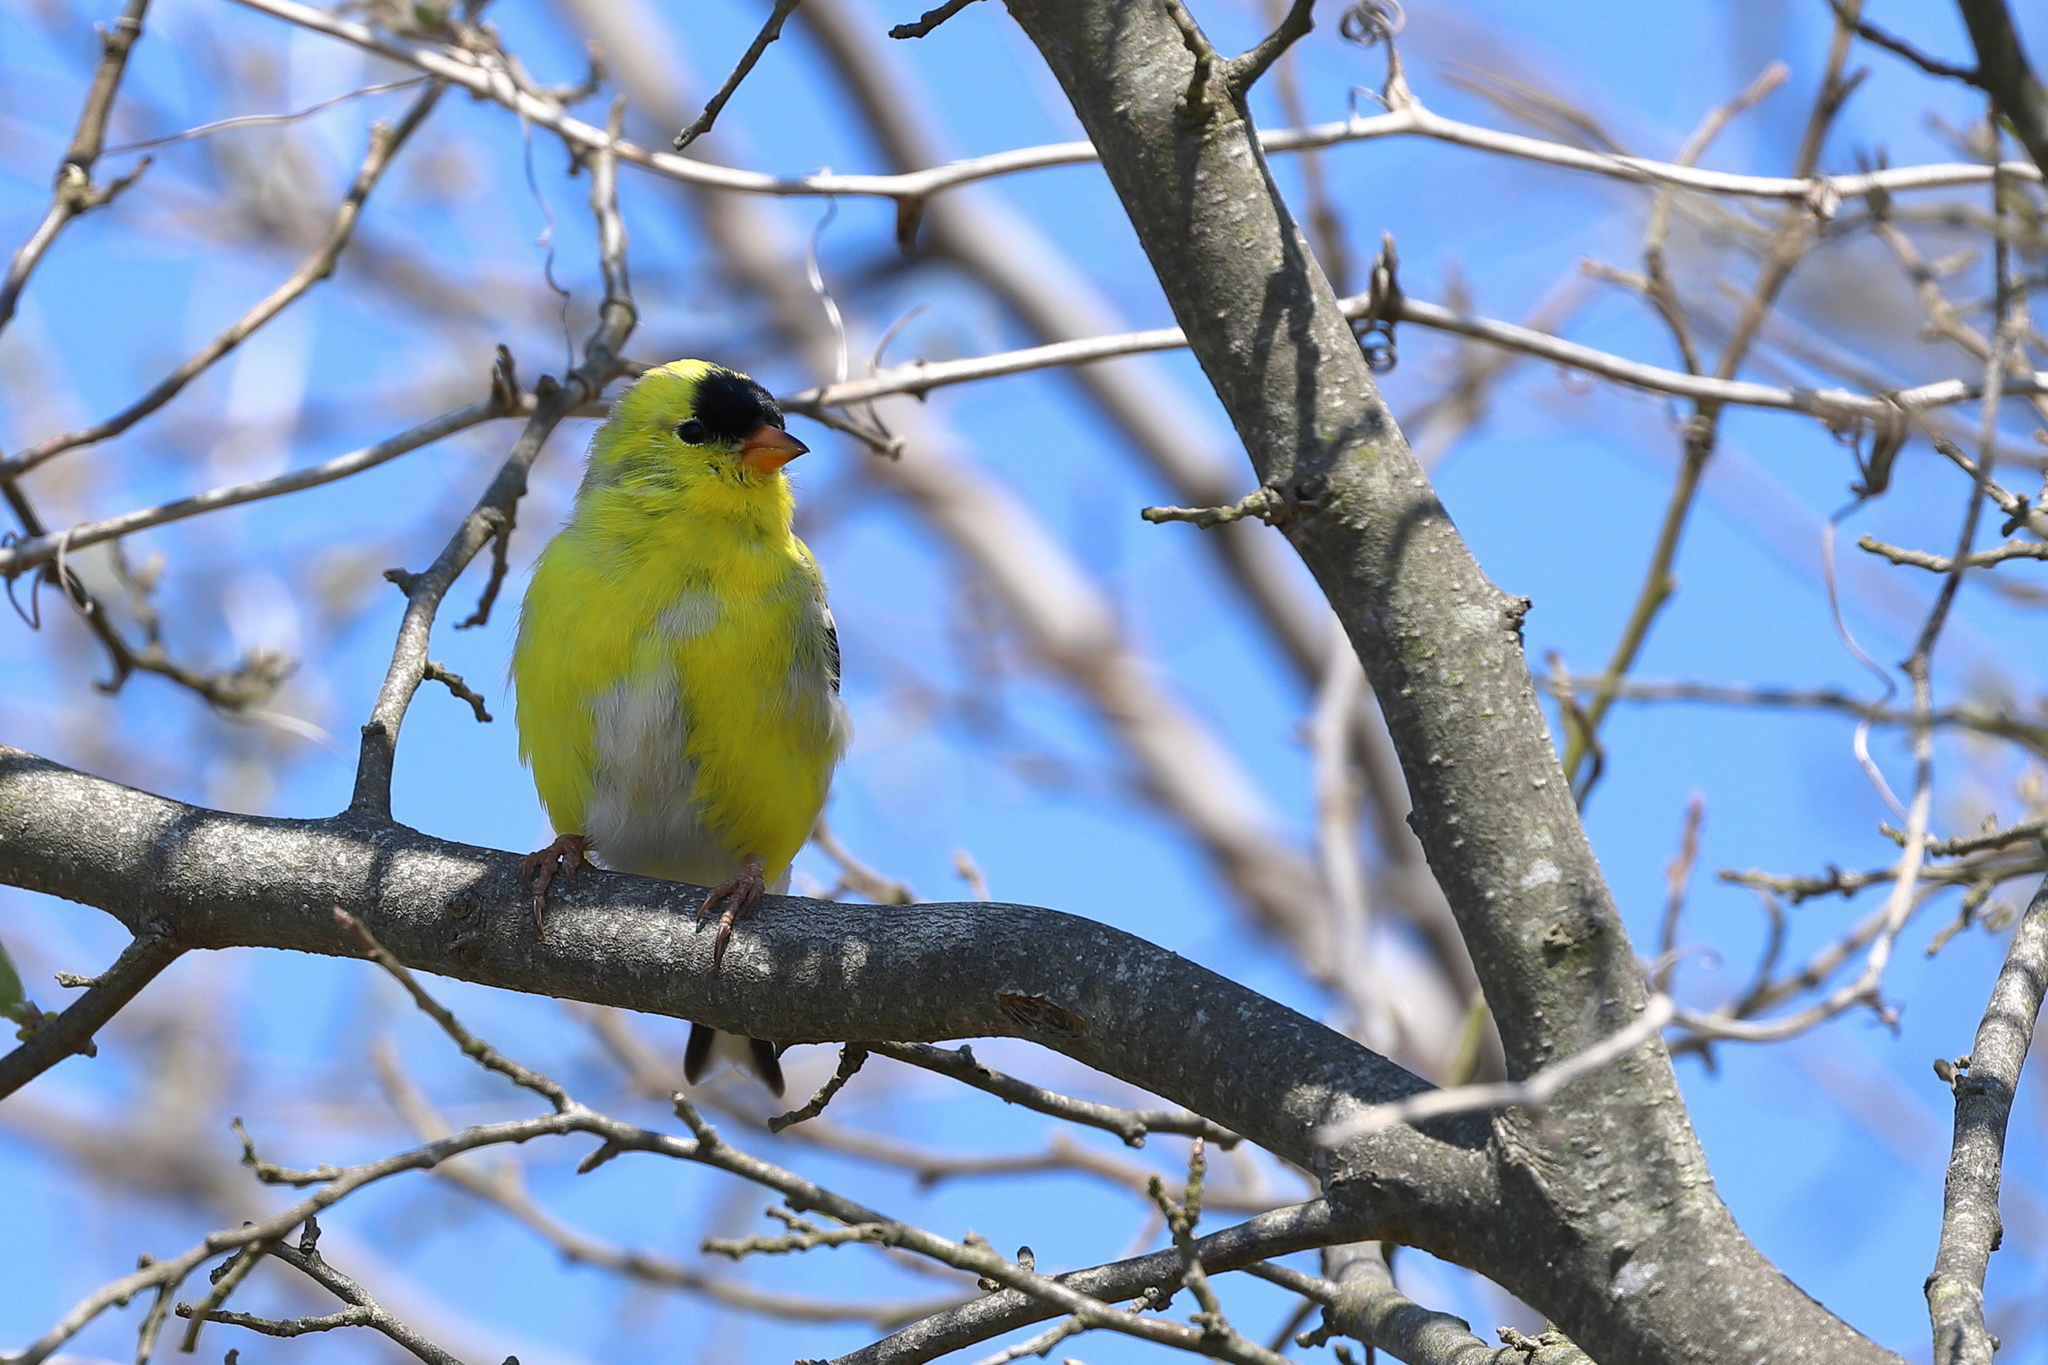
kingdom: Animalia
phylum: Chordata
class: Aves
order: Passeriformes
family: Fringillidae
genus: Spinus
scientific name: Spinus tristis
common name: American goldfinch
